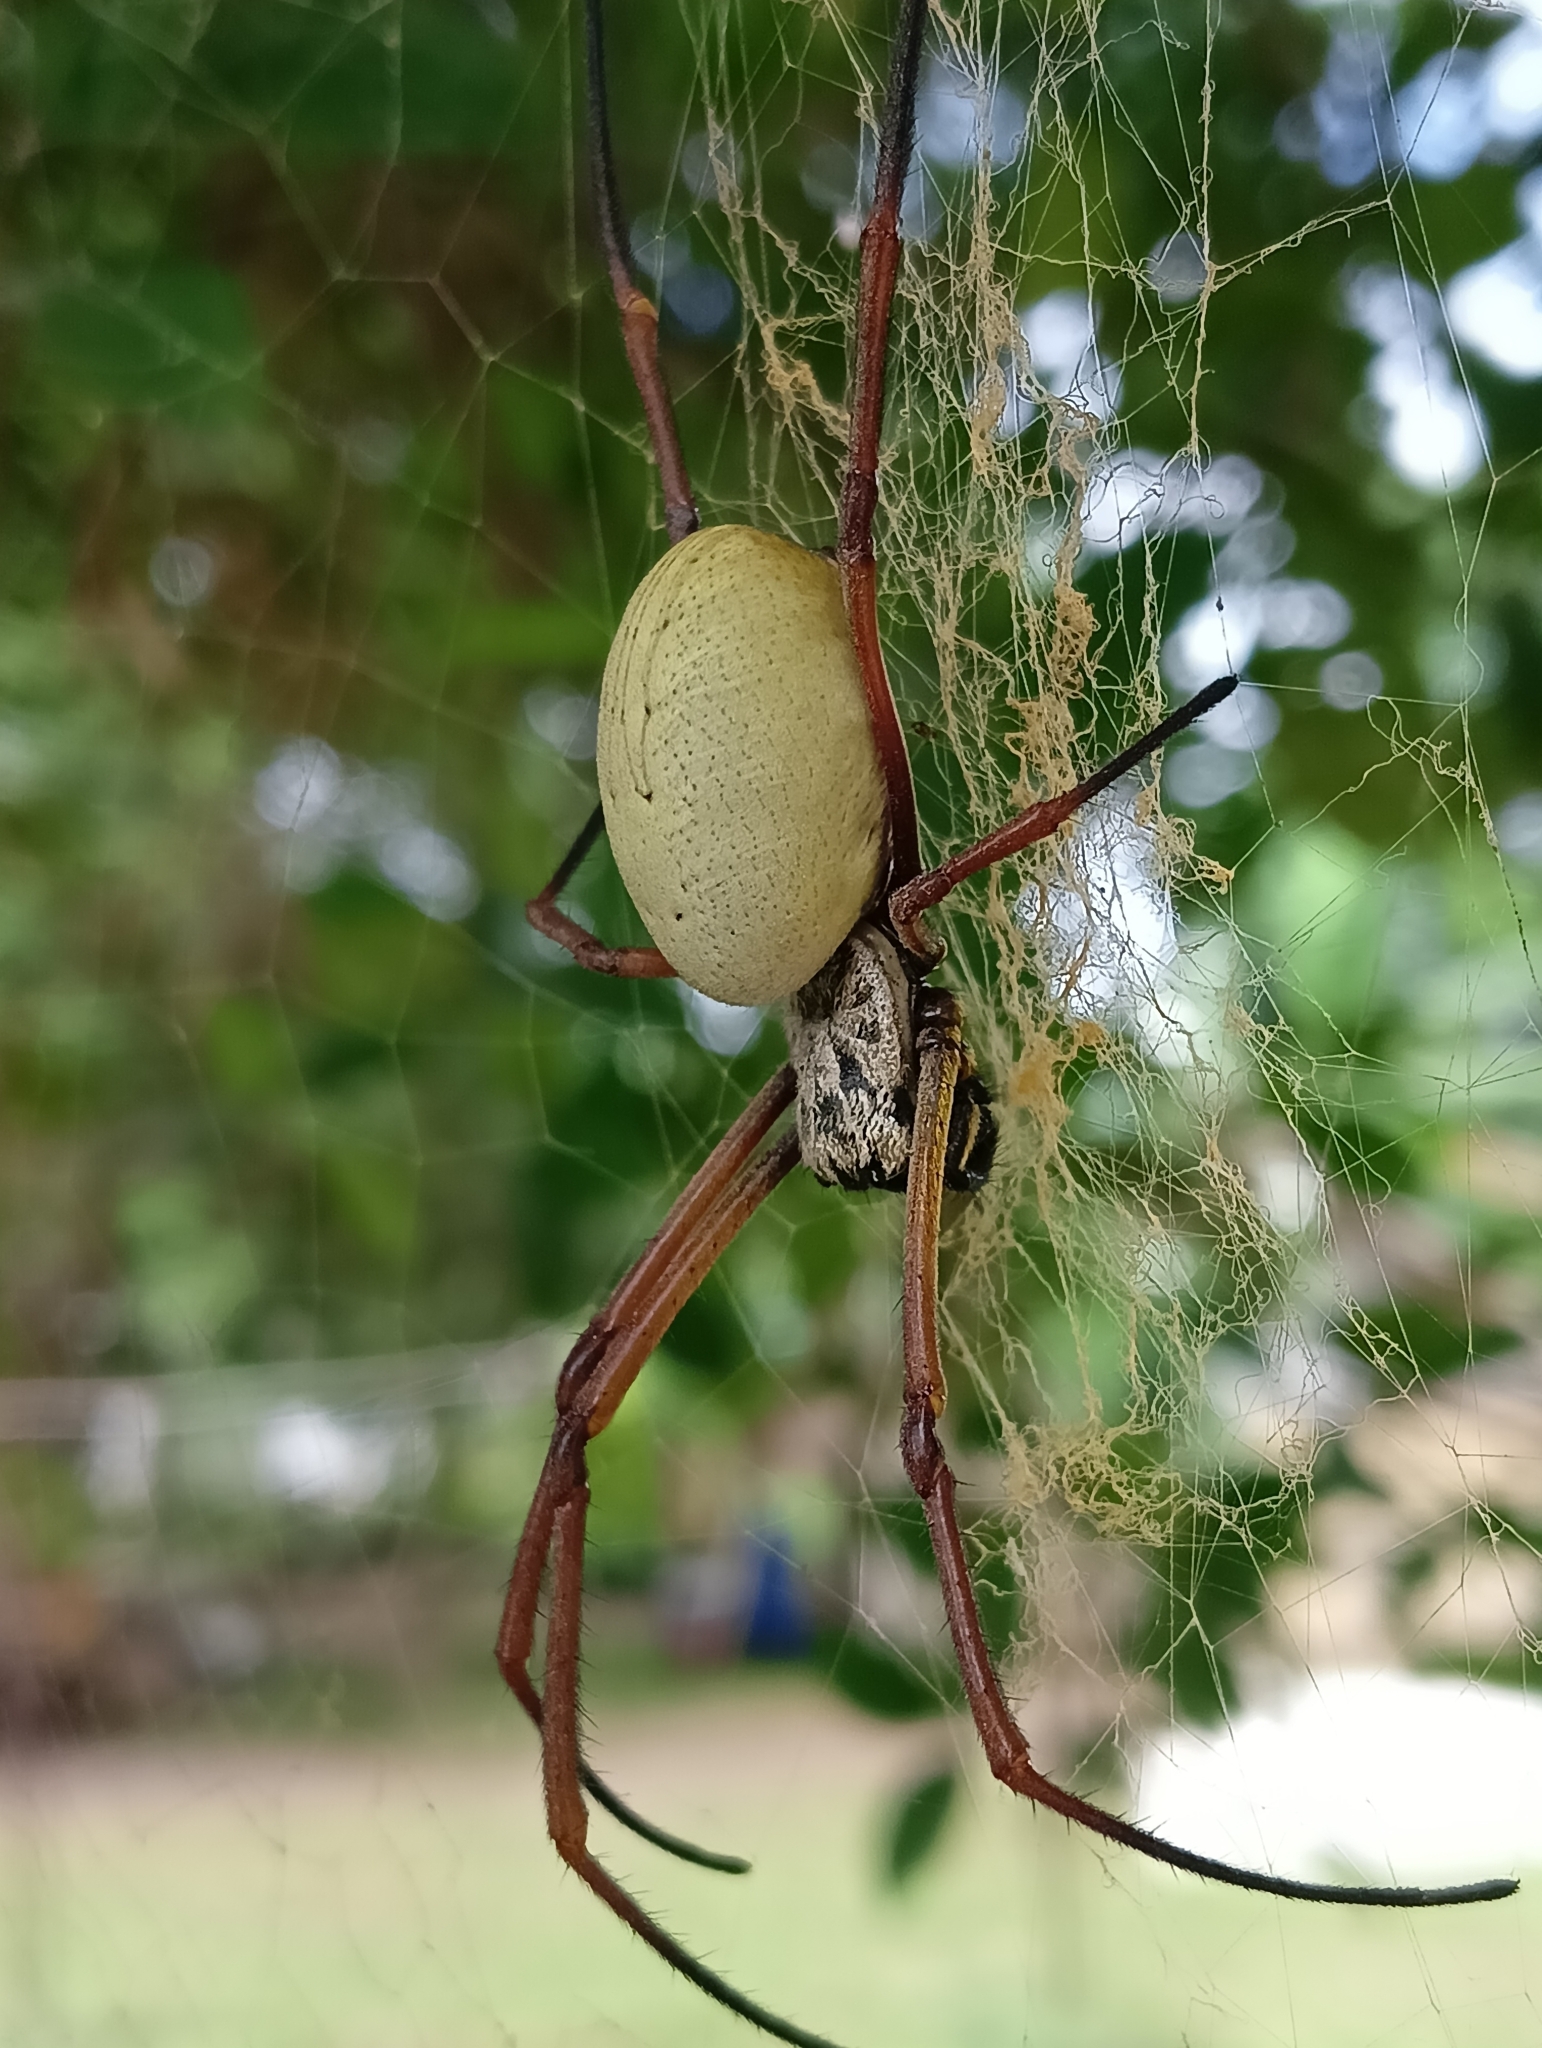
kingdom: Animalia
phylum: Arthropoda
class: Arachnida
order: Araneae
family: Araneidae
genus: Trichonephila
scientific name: Trichonephila plumipes
